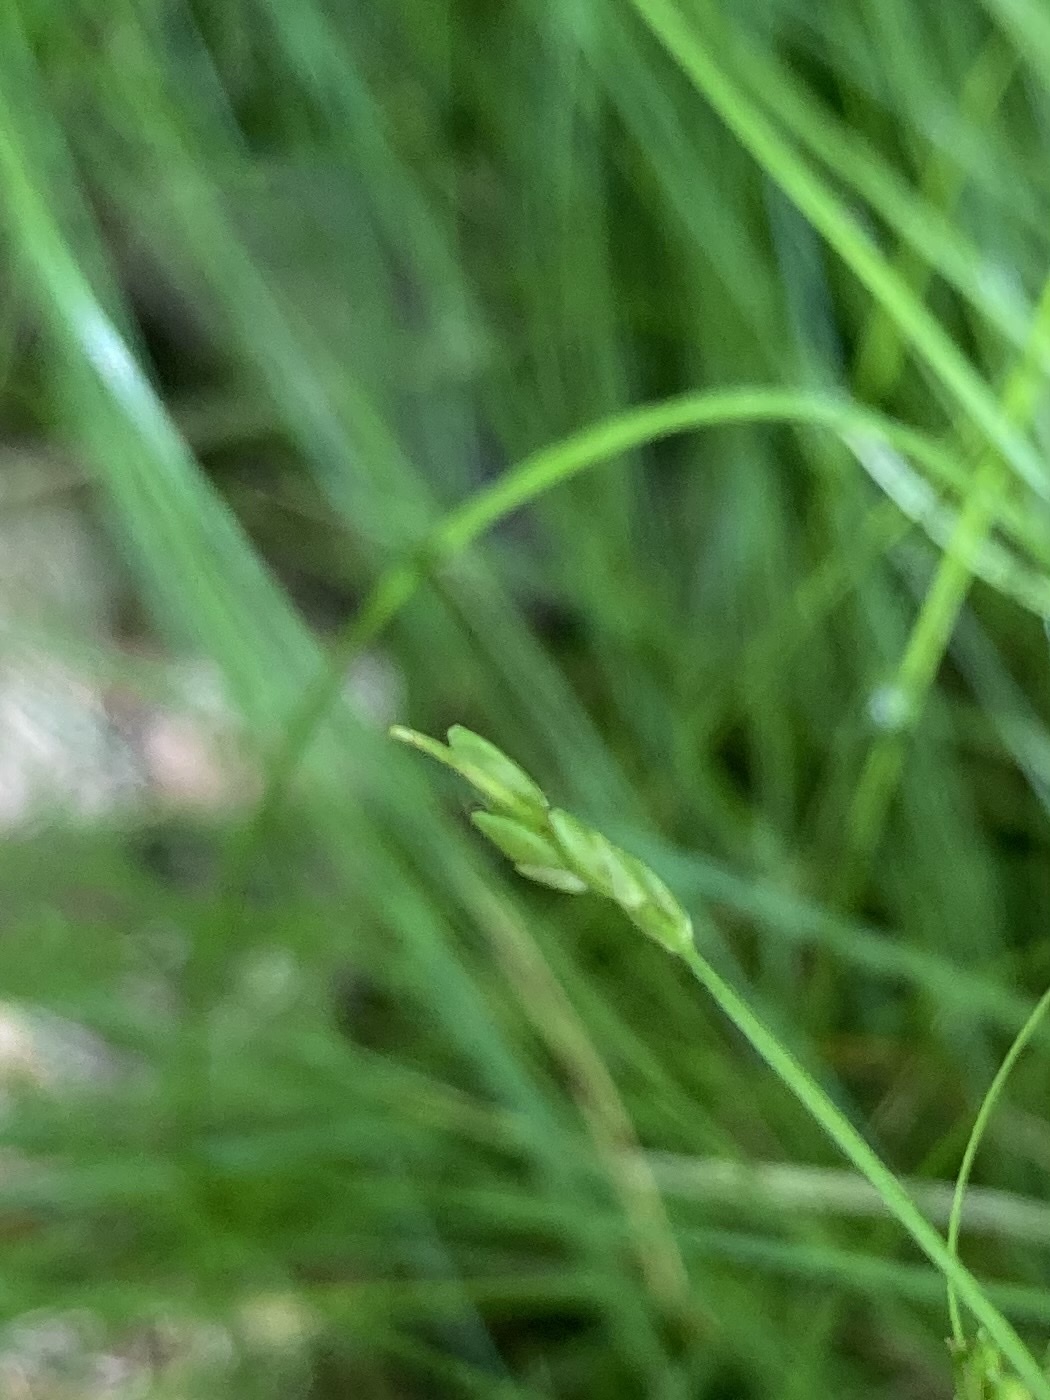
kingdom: Plantae
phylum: Tracheophyta
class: Liliopsida
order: Poales
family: Cyperaceae
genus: Carex
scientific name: Carex leptalea
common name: Bristly-stalked sedge
